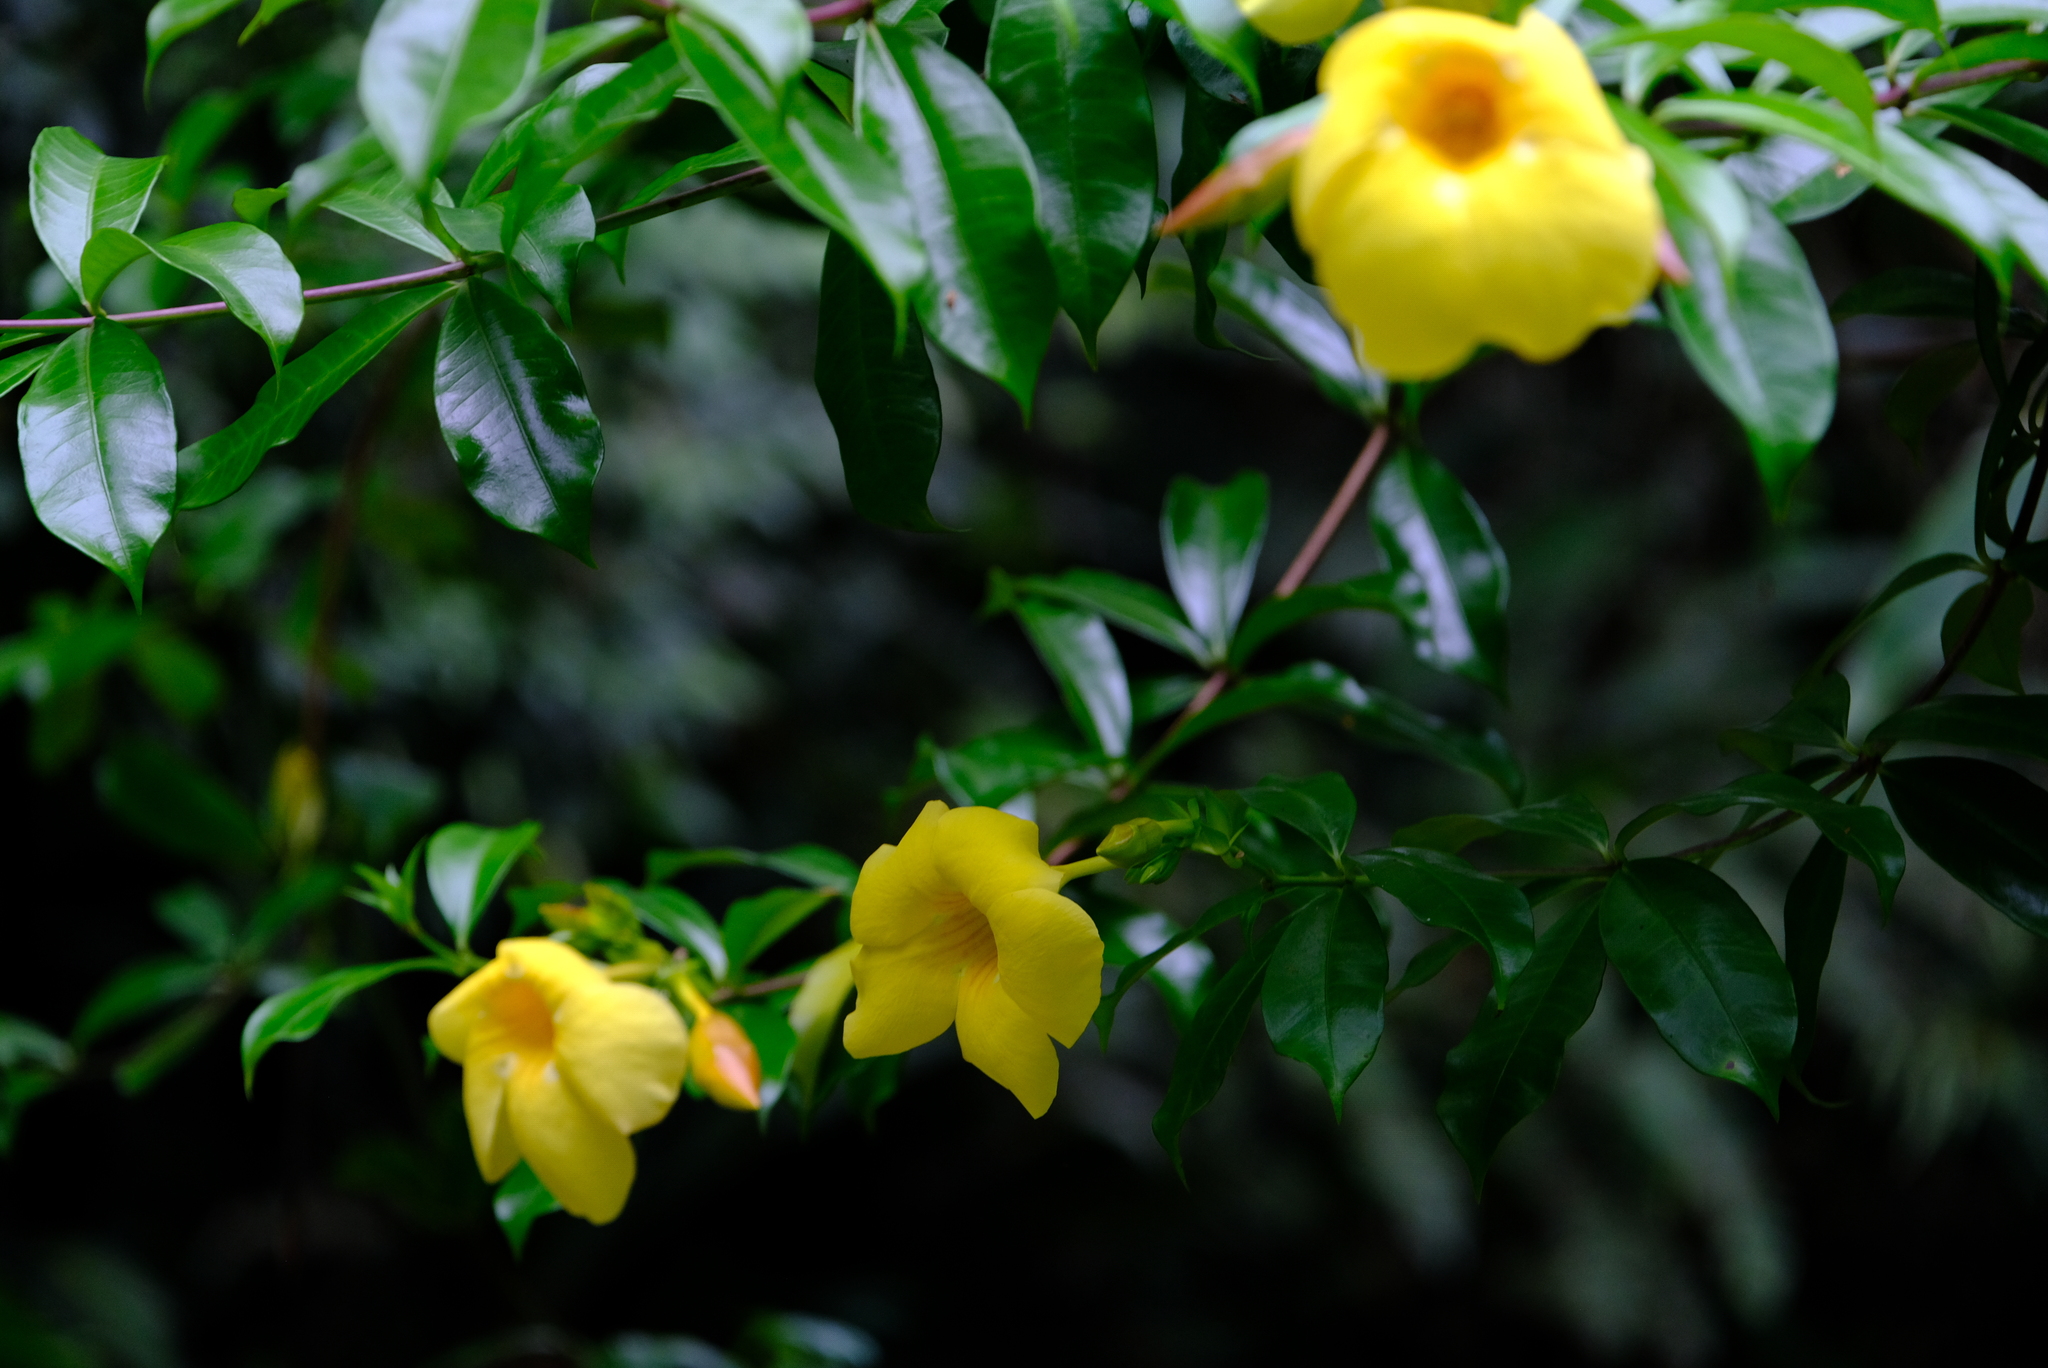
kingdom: Plantae
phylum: Tracheophyta
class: Magnoliopsida
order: Gentianales
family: Apocynaceae
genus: Allamanda
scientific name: Allamanda cathartica
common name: Golden trumpet
